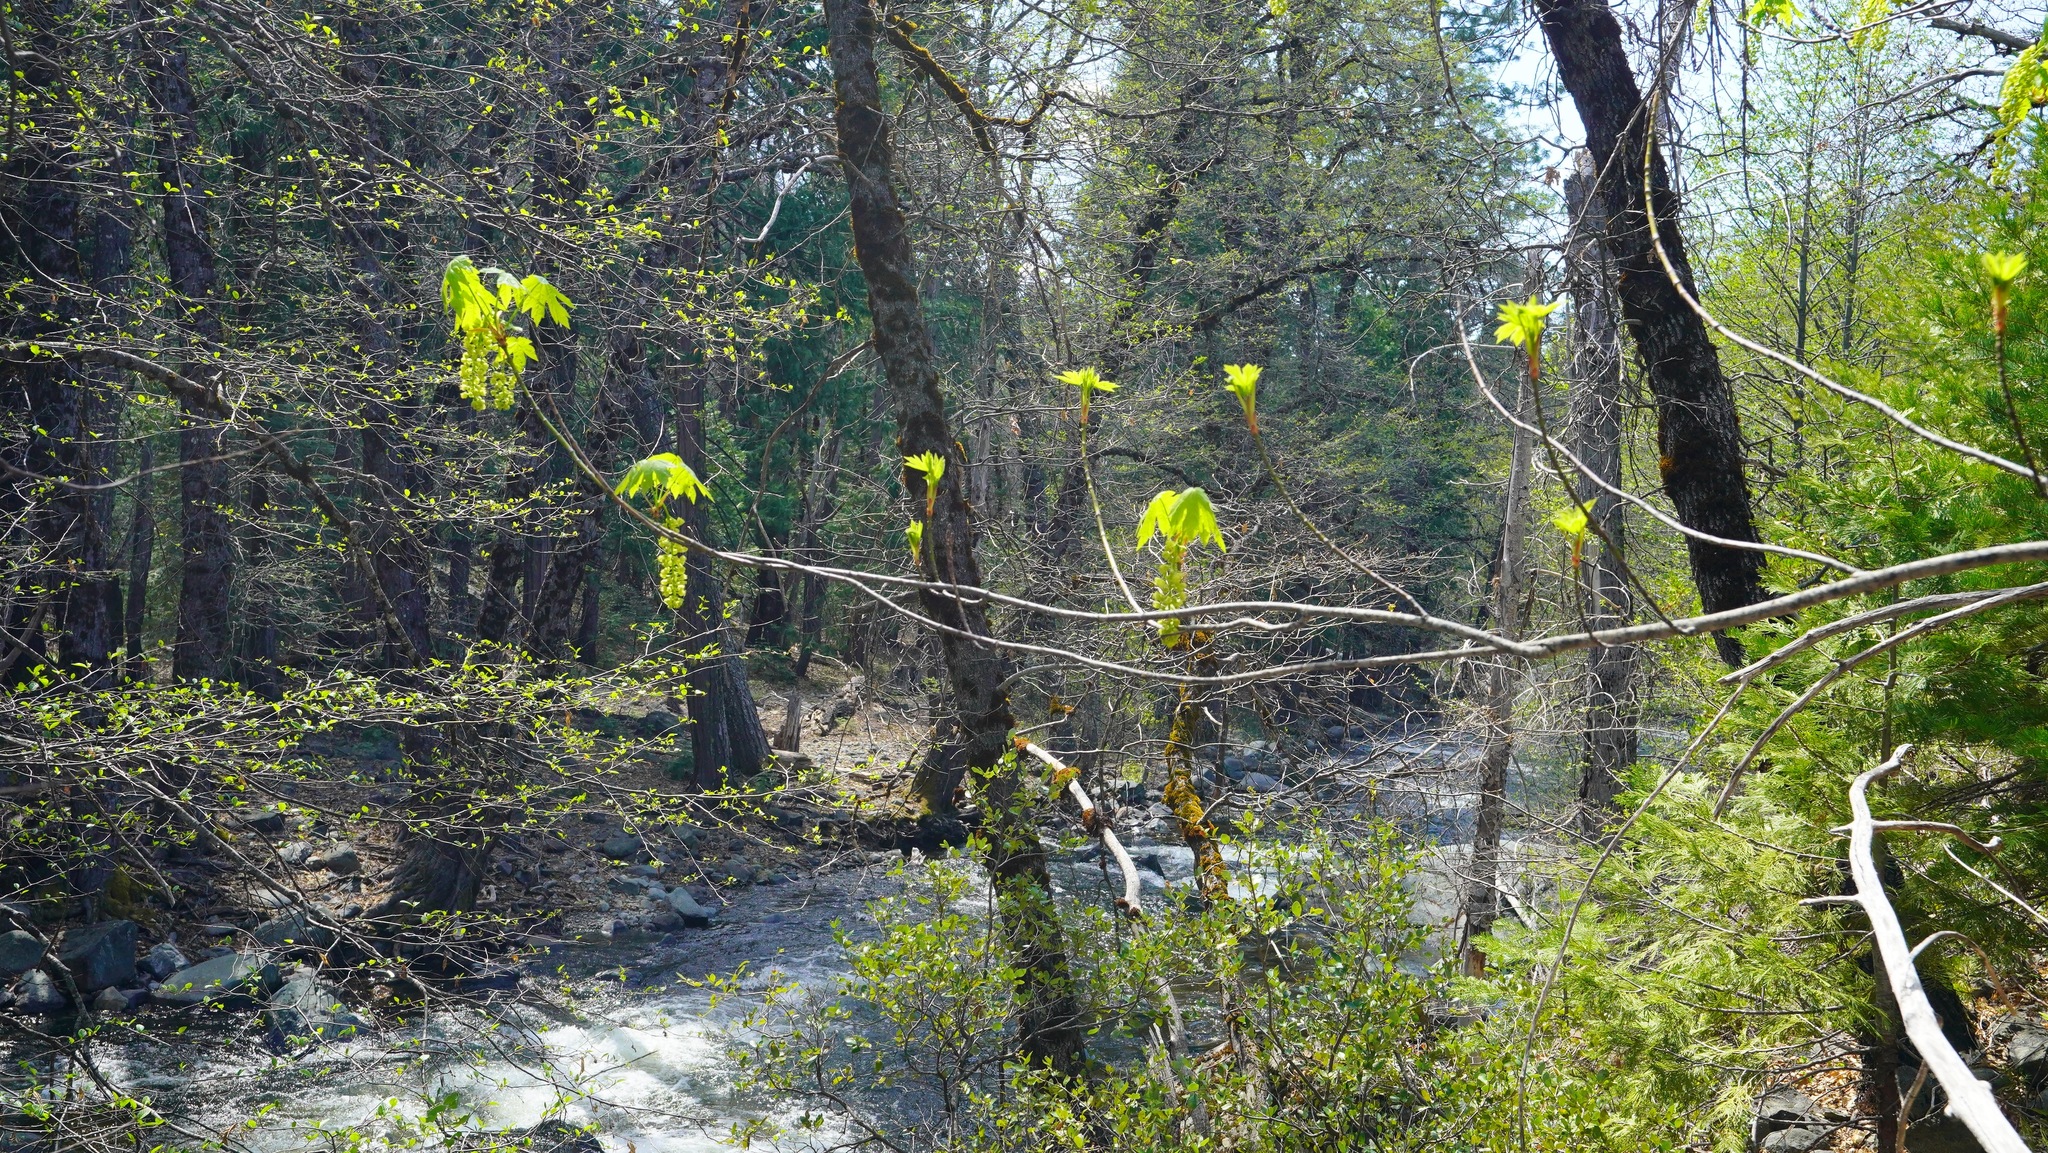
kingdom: Plantae
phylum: Tracheophyta
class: Magnoliopsida
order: Sapindales
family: Sapindaceae
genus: Acer
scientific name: Acer macrophyllum
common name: Oregon maple
